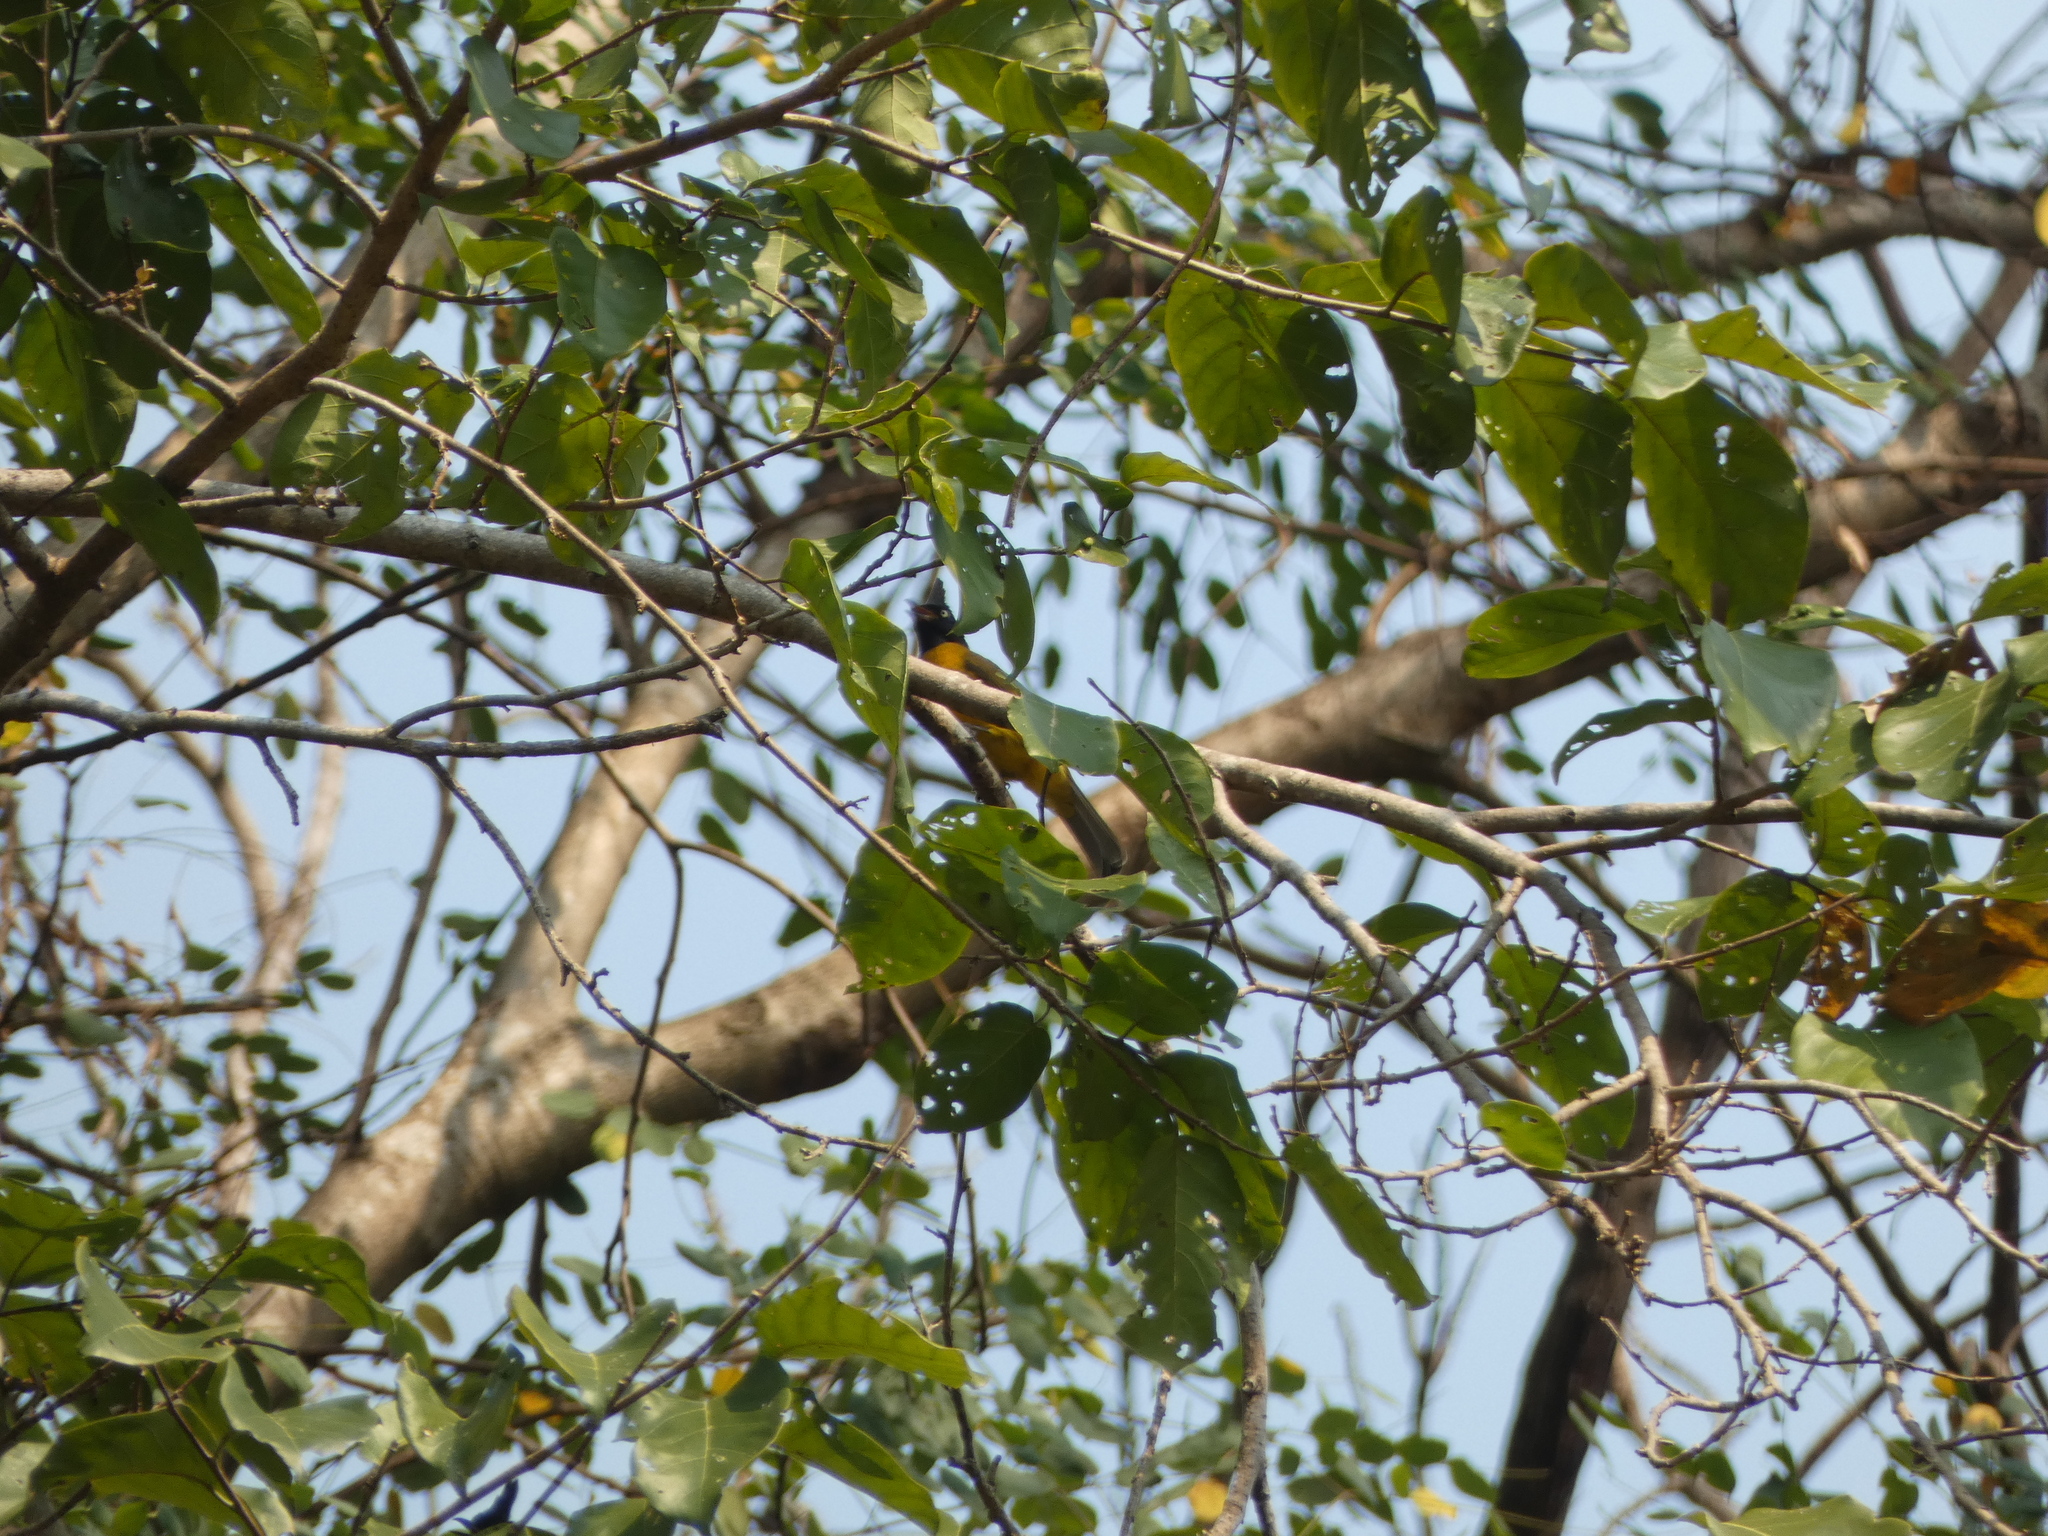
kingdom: Animalia
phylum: Chordata
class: Aves
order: Passeriformes
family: Pycnonotidae
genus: Pycnonotus
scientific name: Pycnonotus flaviventris
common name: Black-crested bulbul
